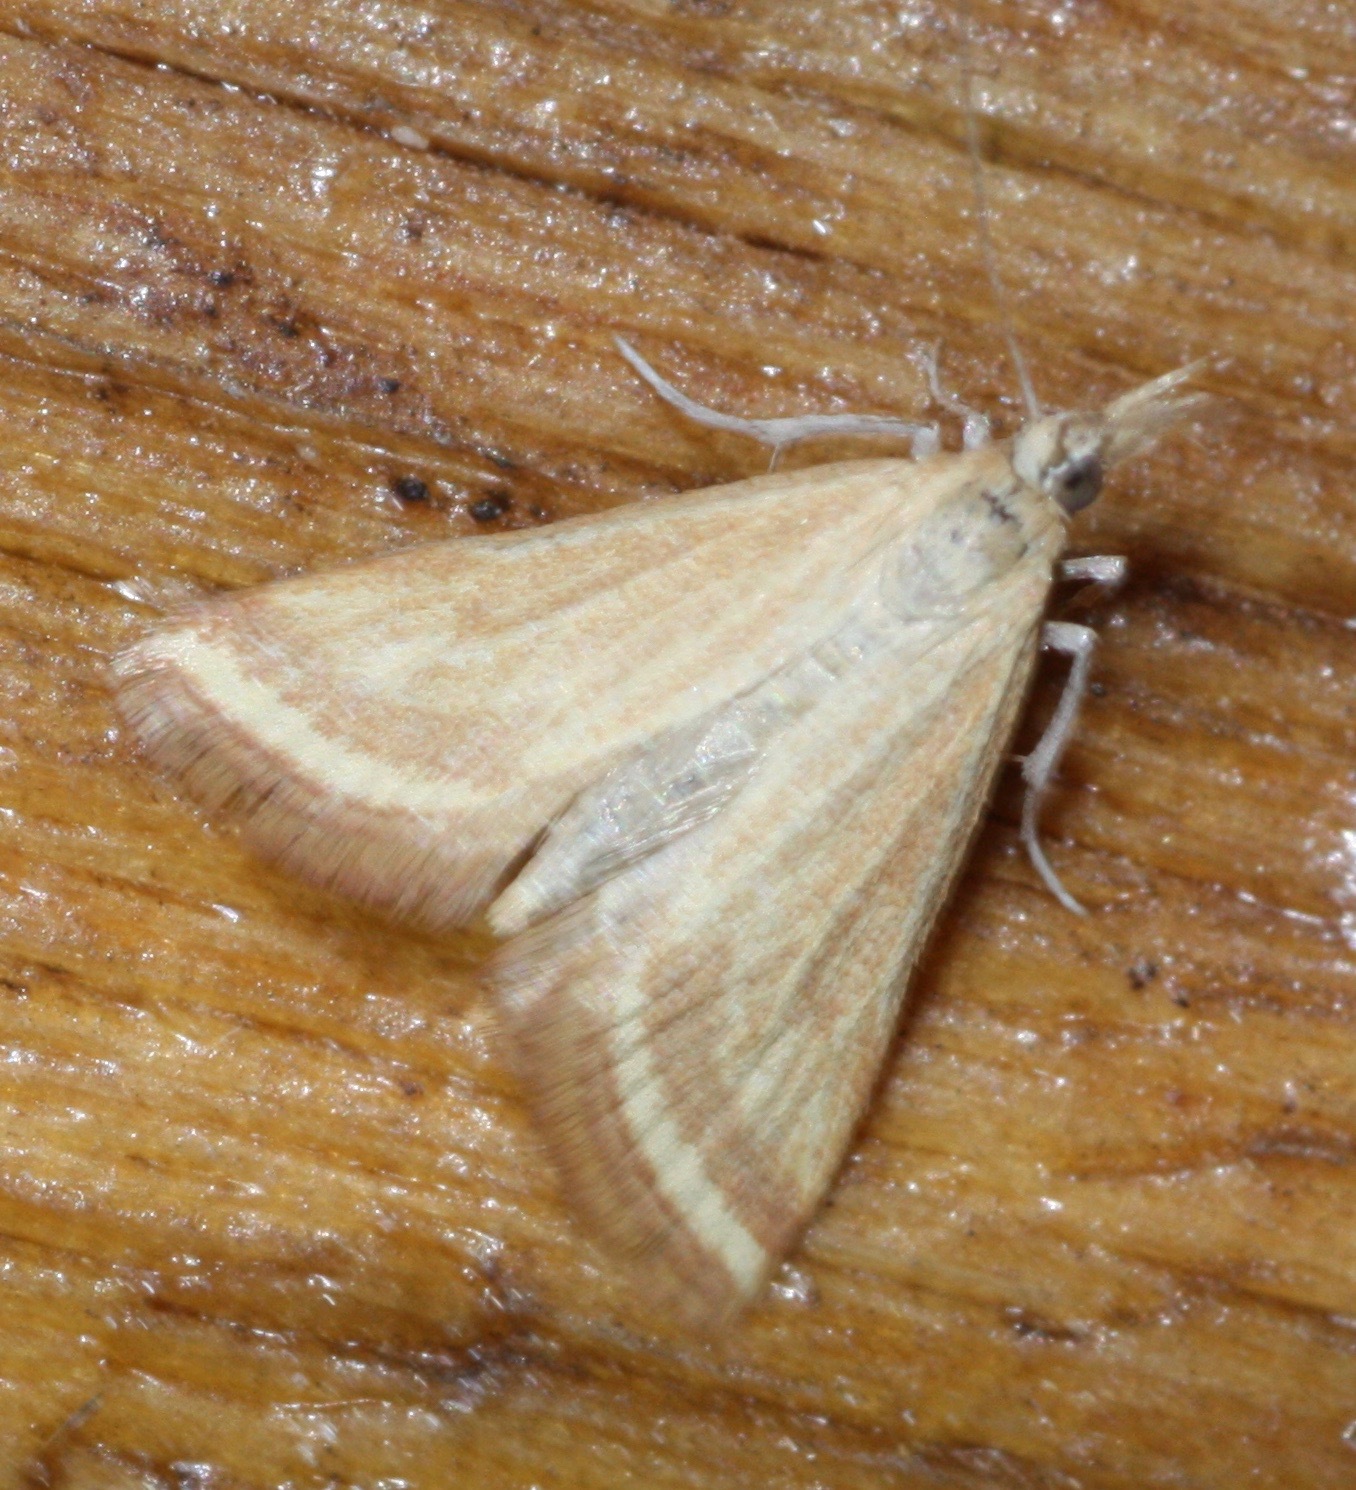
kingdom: Animalia
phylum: Arthropoda
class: Insecta
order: Lepidoptera
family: Crambidae
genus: Microtheoris
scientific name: Microtheoris ophionalis
